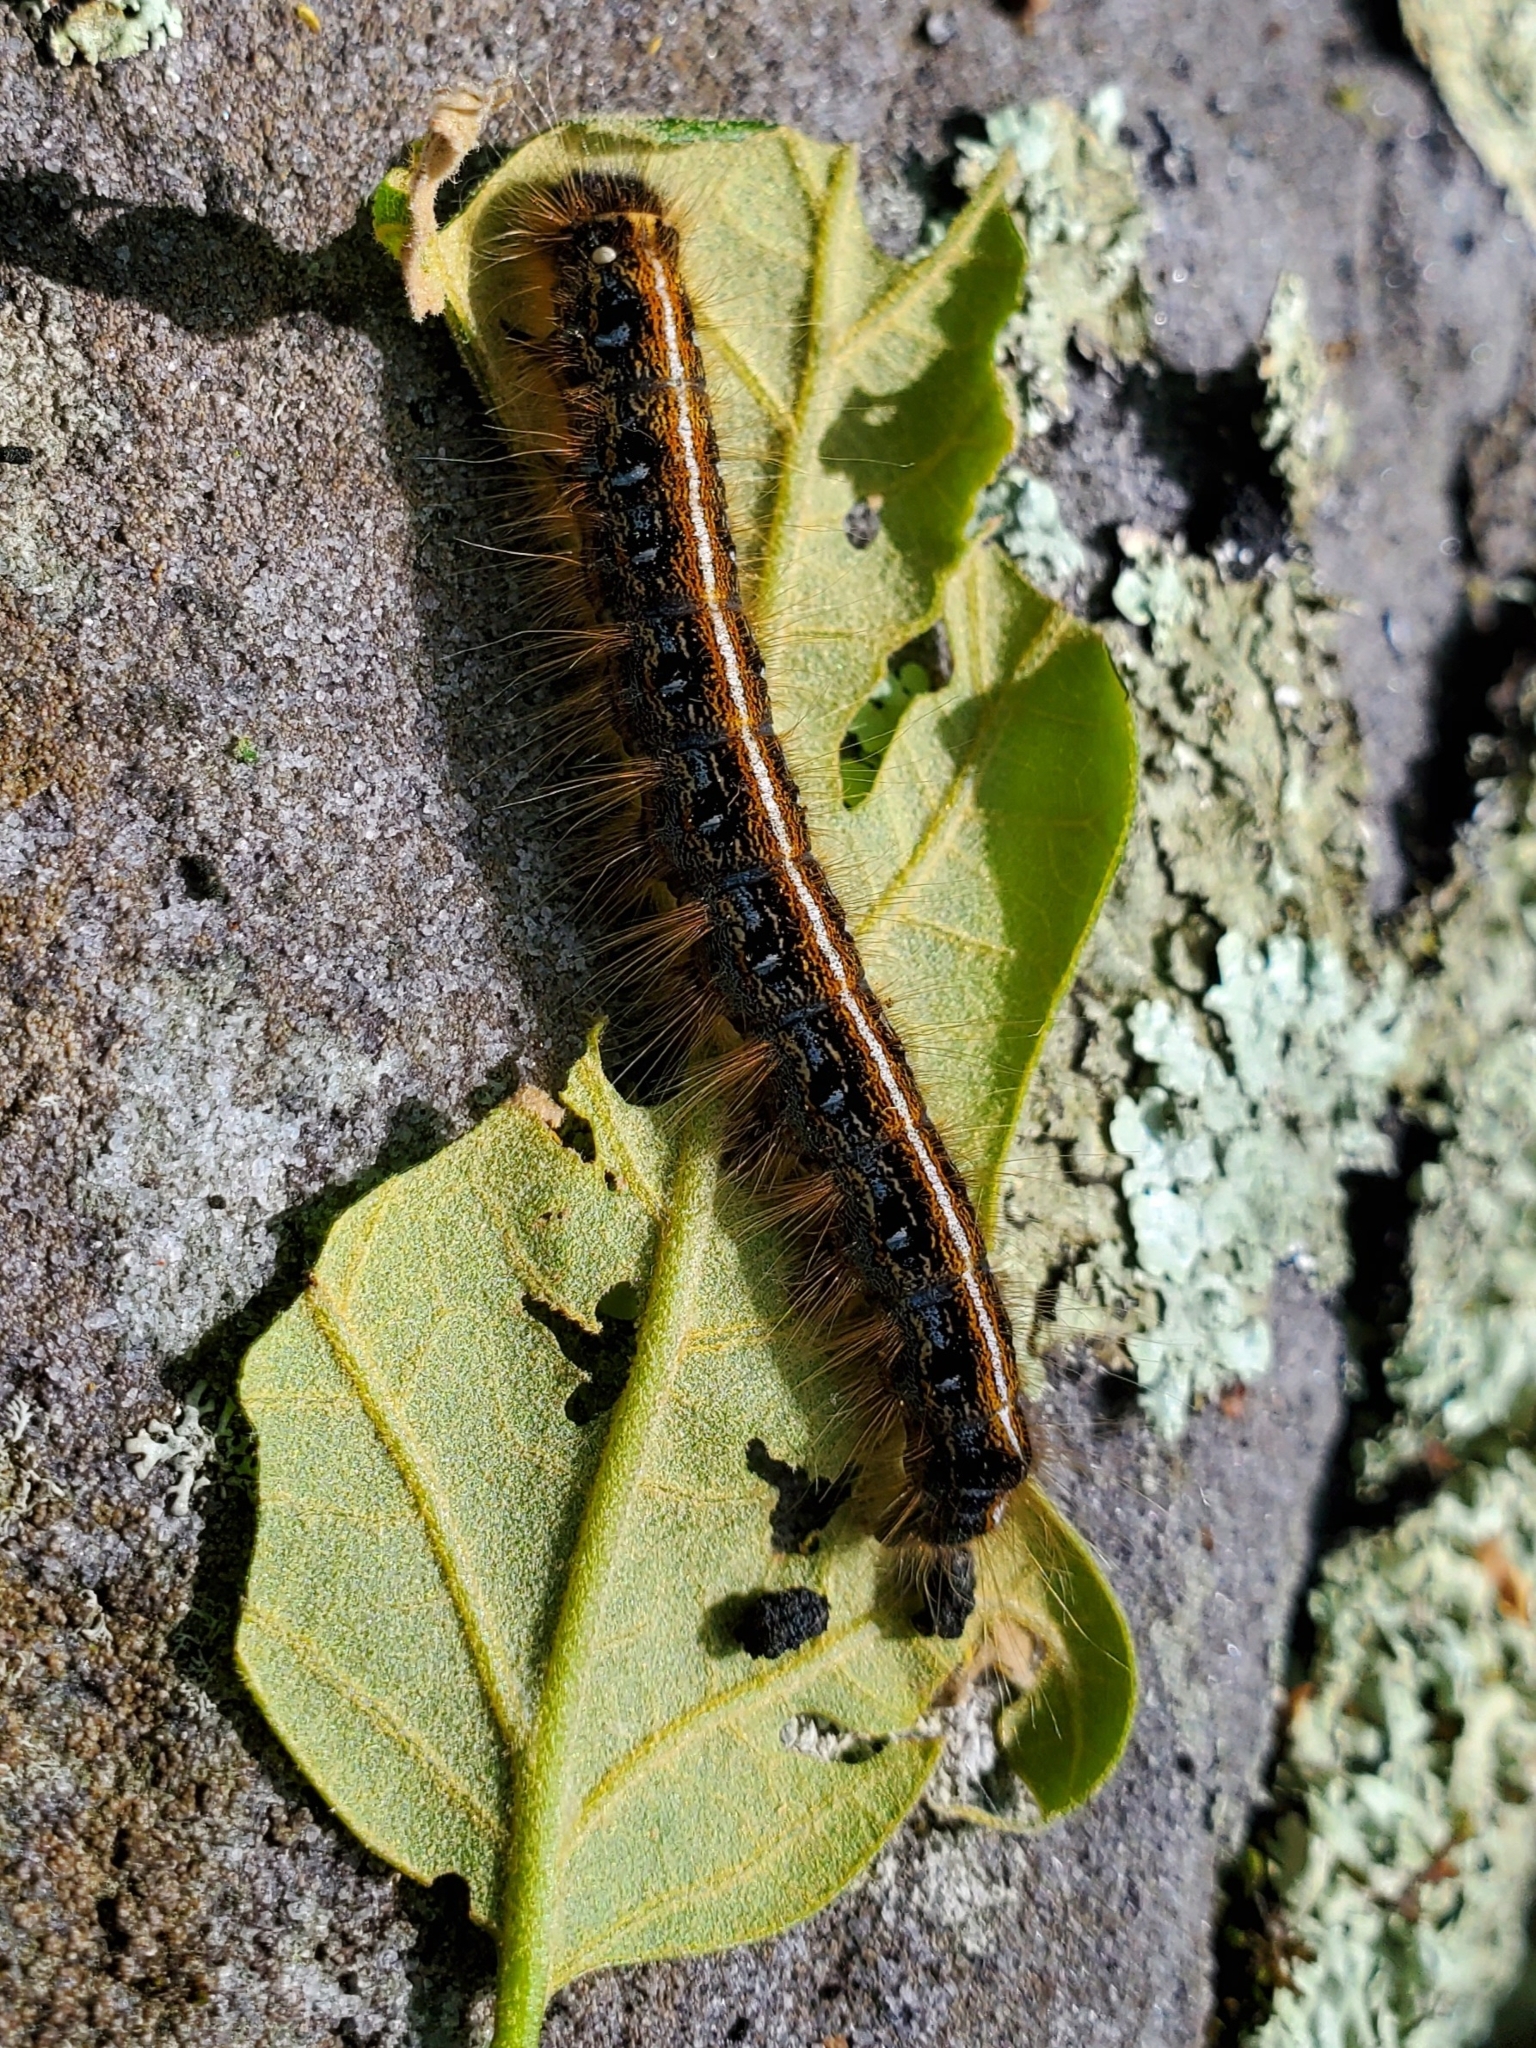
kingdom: Animalia
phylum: Arthropoda
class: Insecta
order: Lepidoptera
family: Lasiocampidae
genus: Malacosoma
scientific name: Malacosoma americana
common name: Eastern tent caterpillar moth
